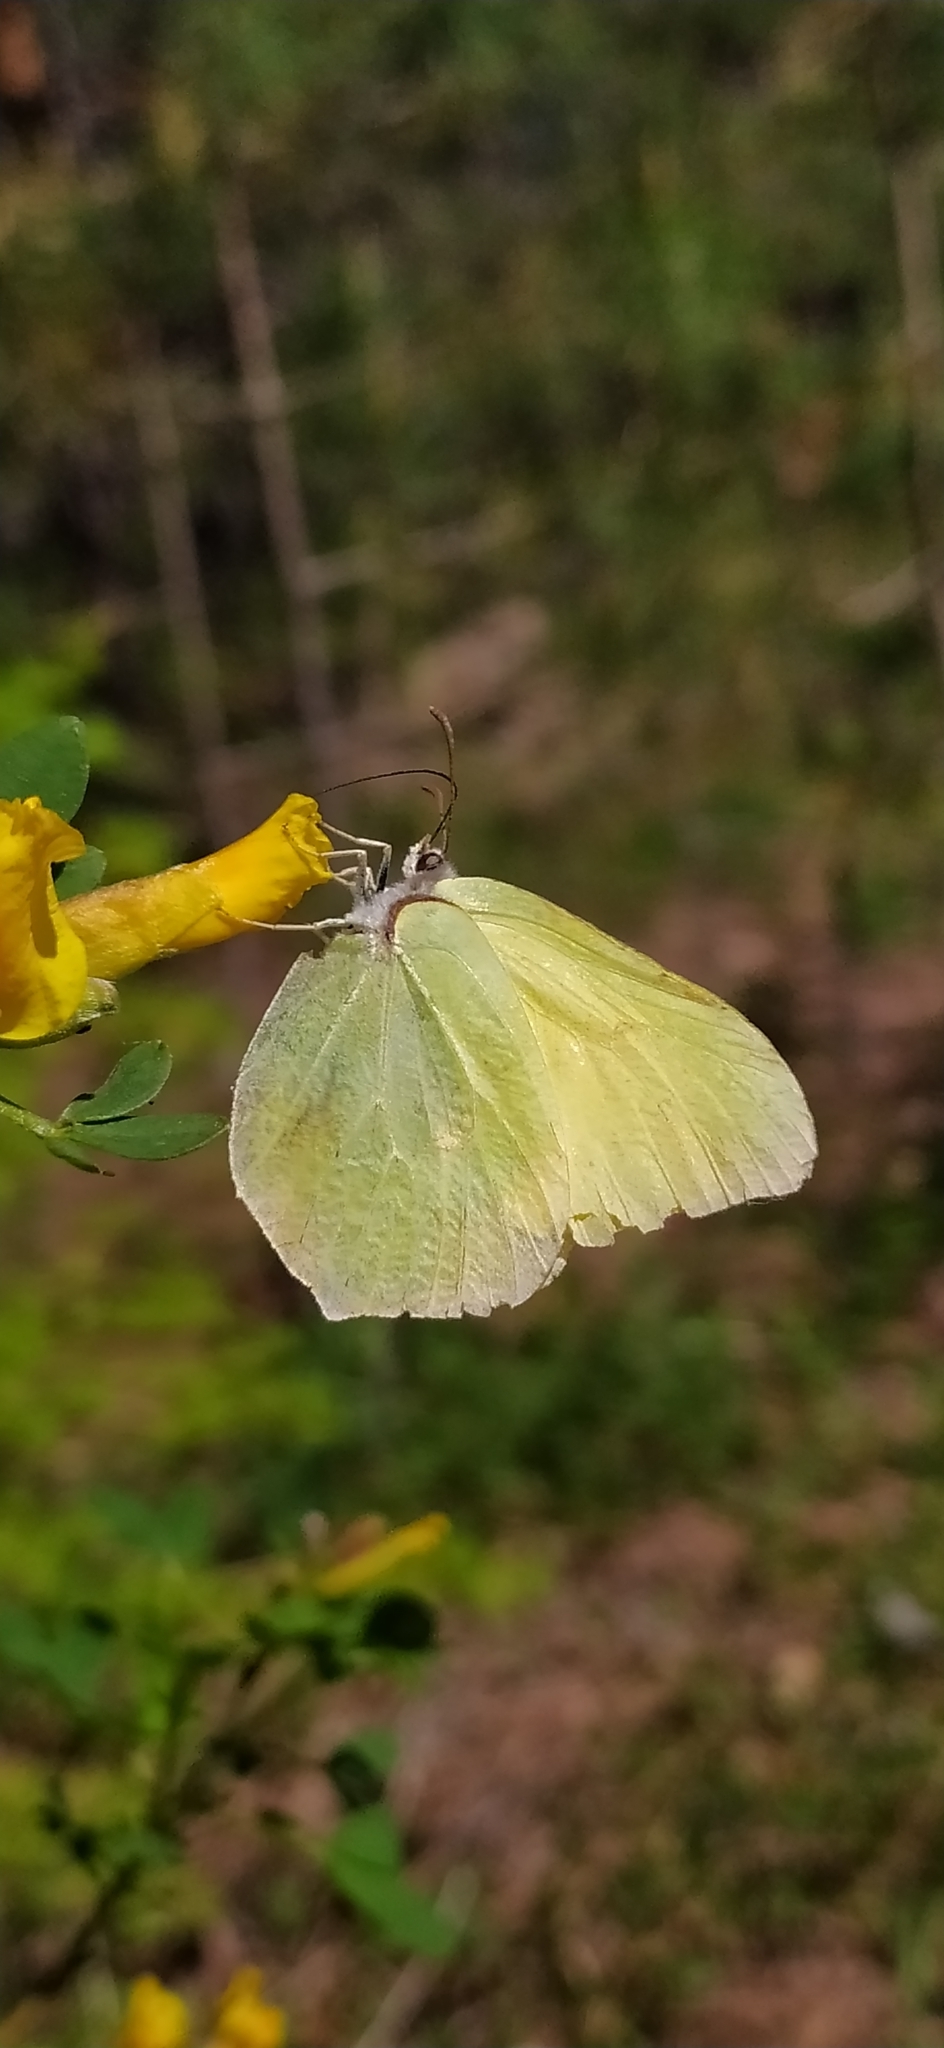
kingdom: Animalia
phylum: Arthropoda
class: Insecta
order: Lepidoptera
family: Pieridae
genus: Gonepteryx
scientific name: Gonepteryx rhamni
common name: Brimstone
